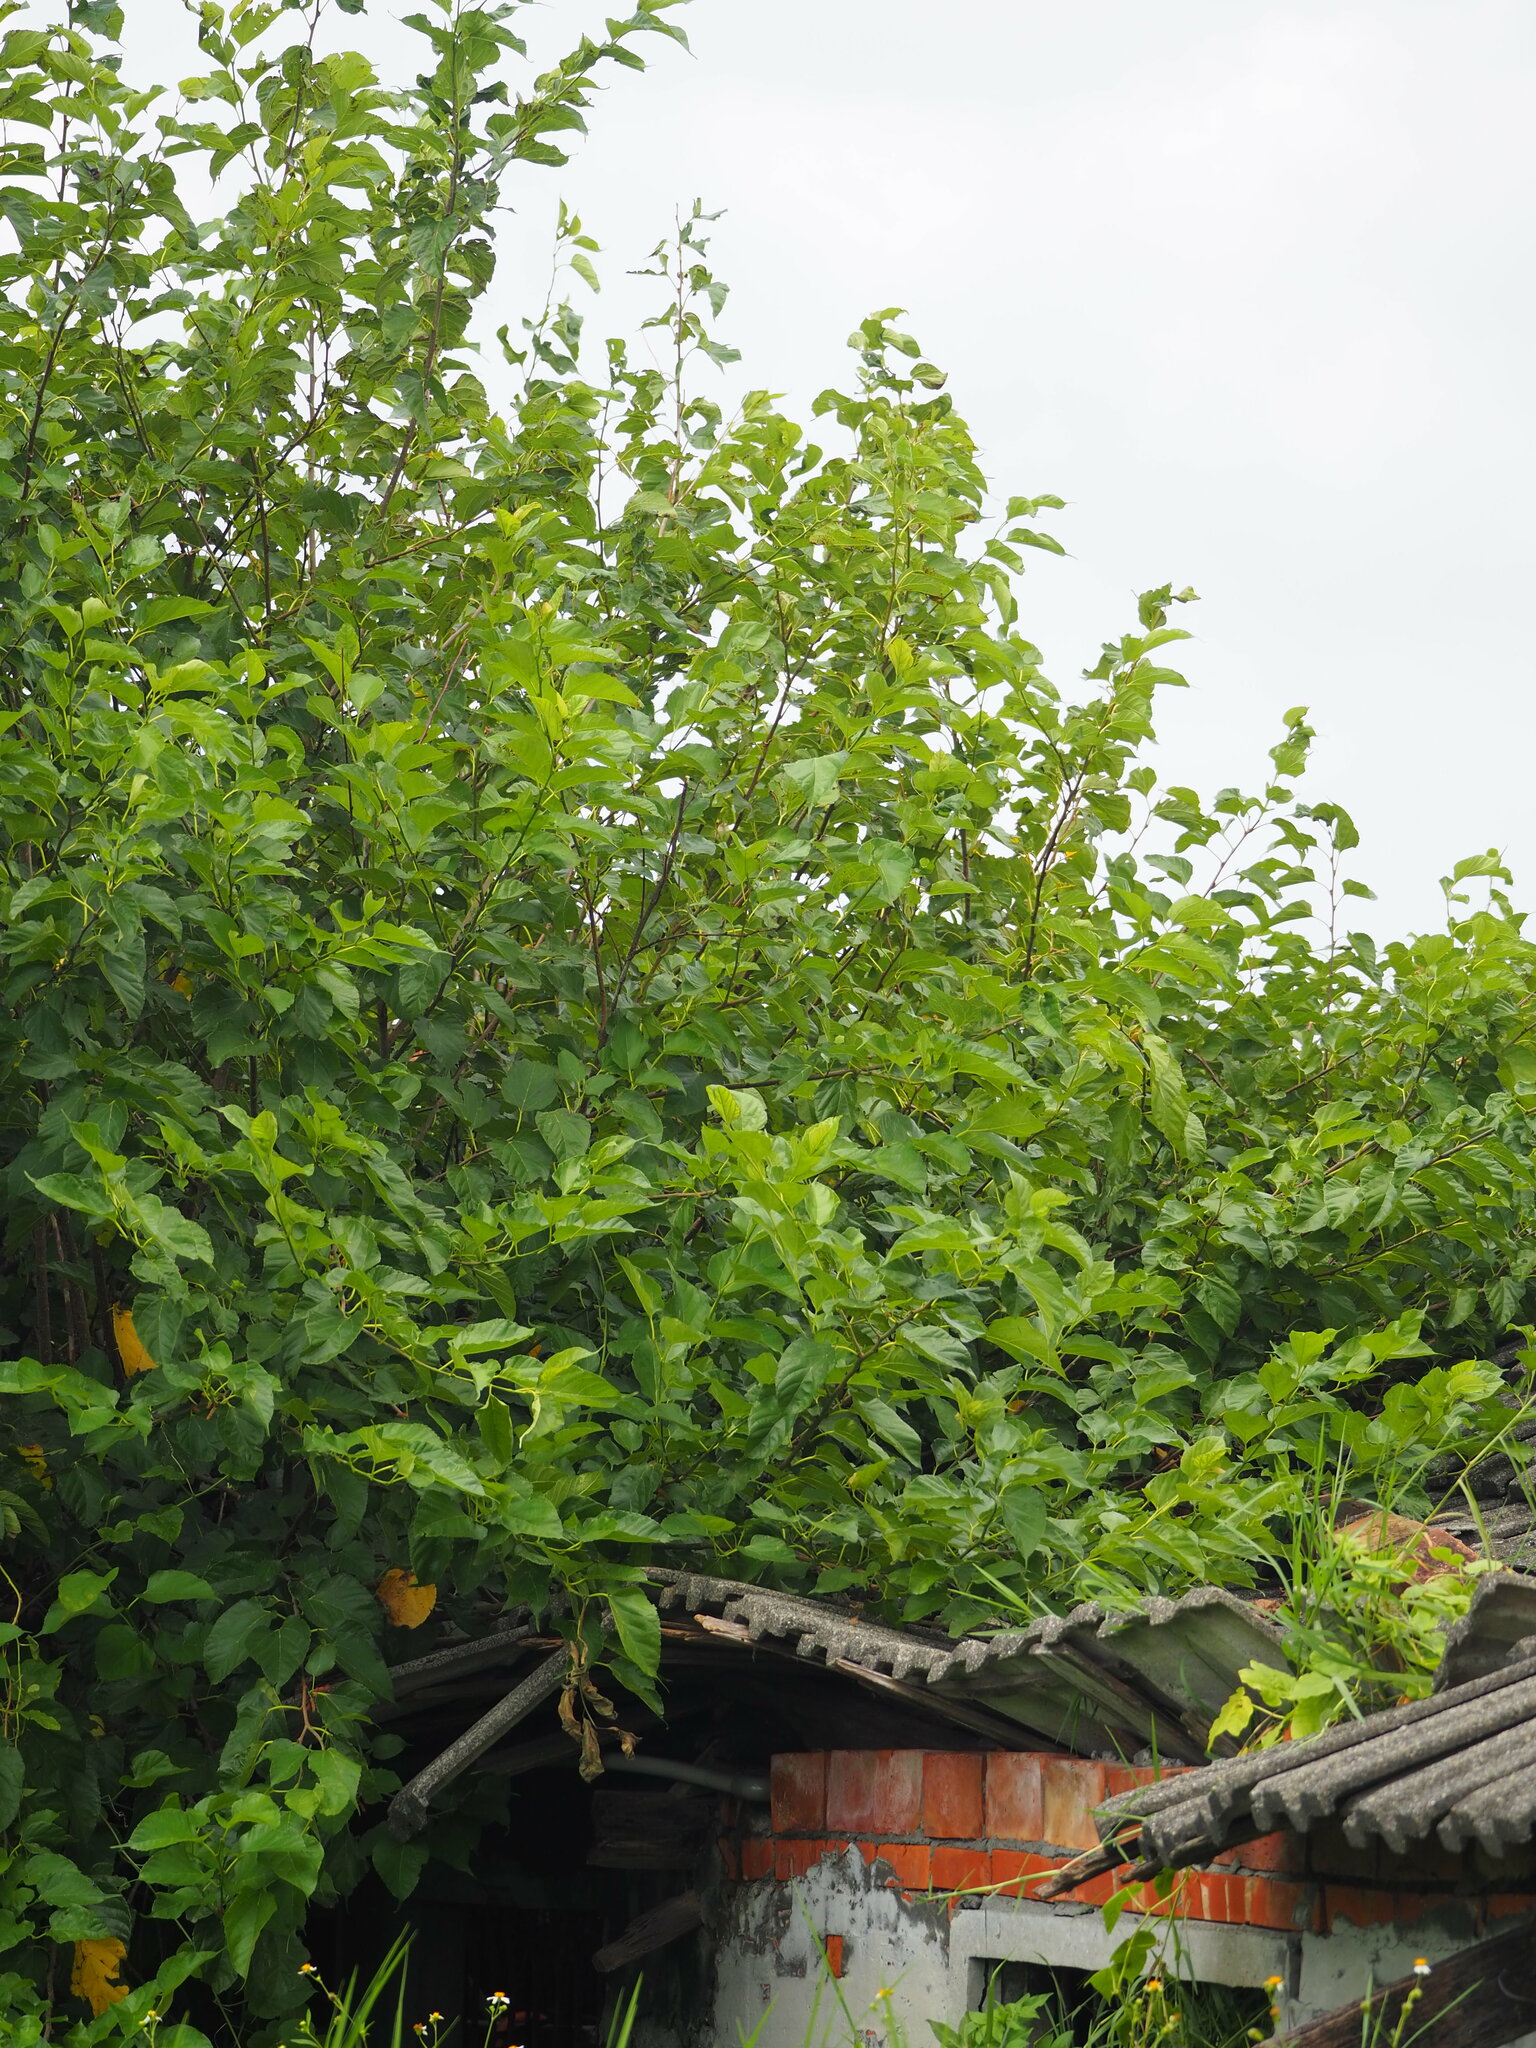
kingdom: Plantae
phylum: Tracheophyta
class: Magnoliopsida
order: Rosales
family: Moraceae
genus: Morus
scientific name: Morus indica
